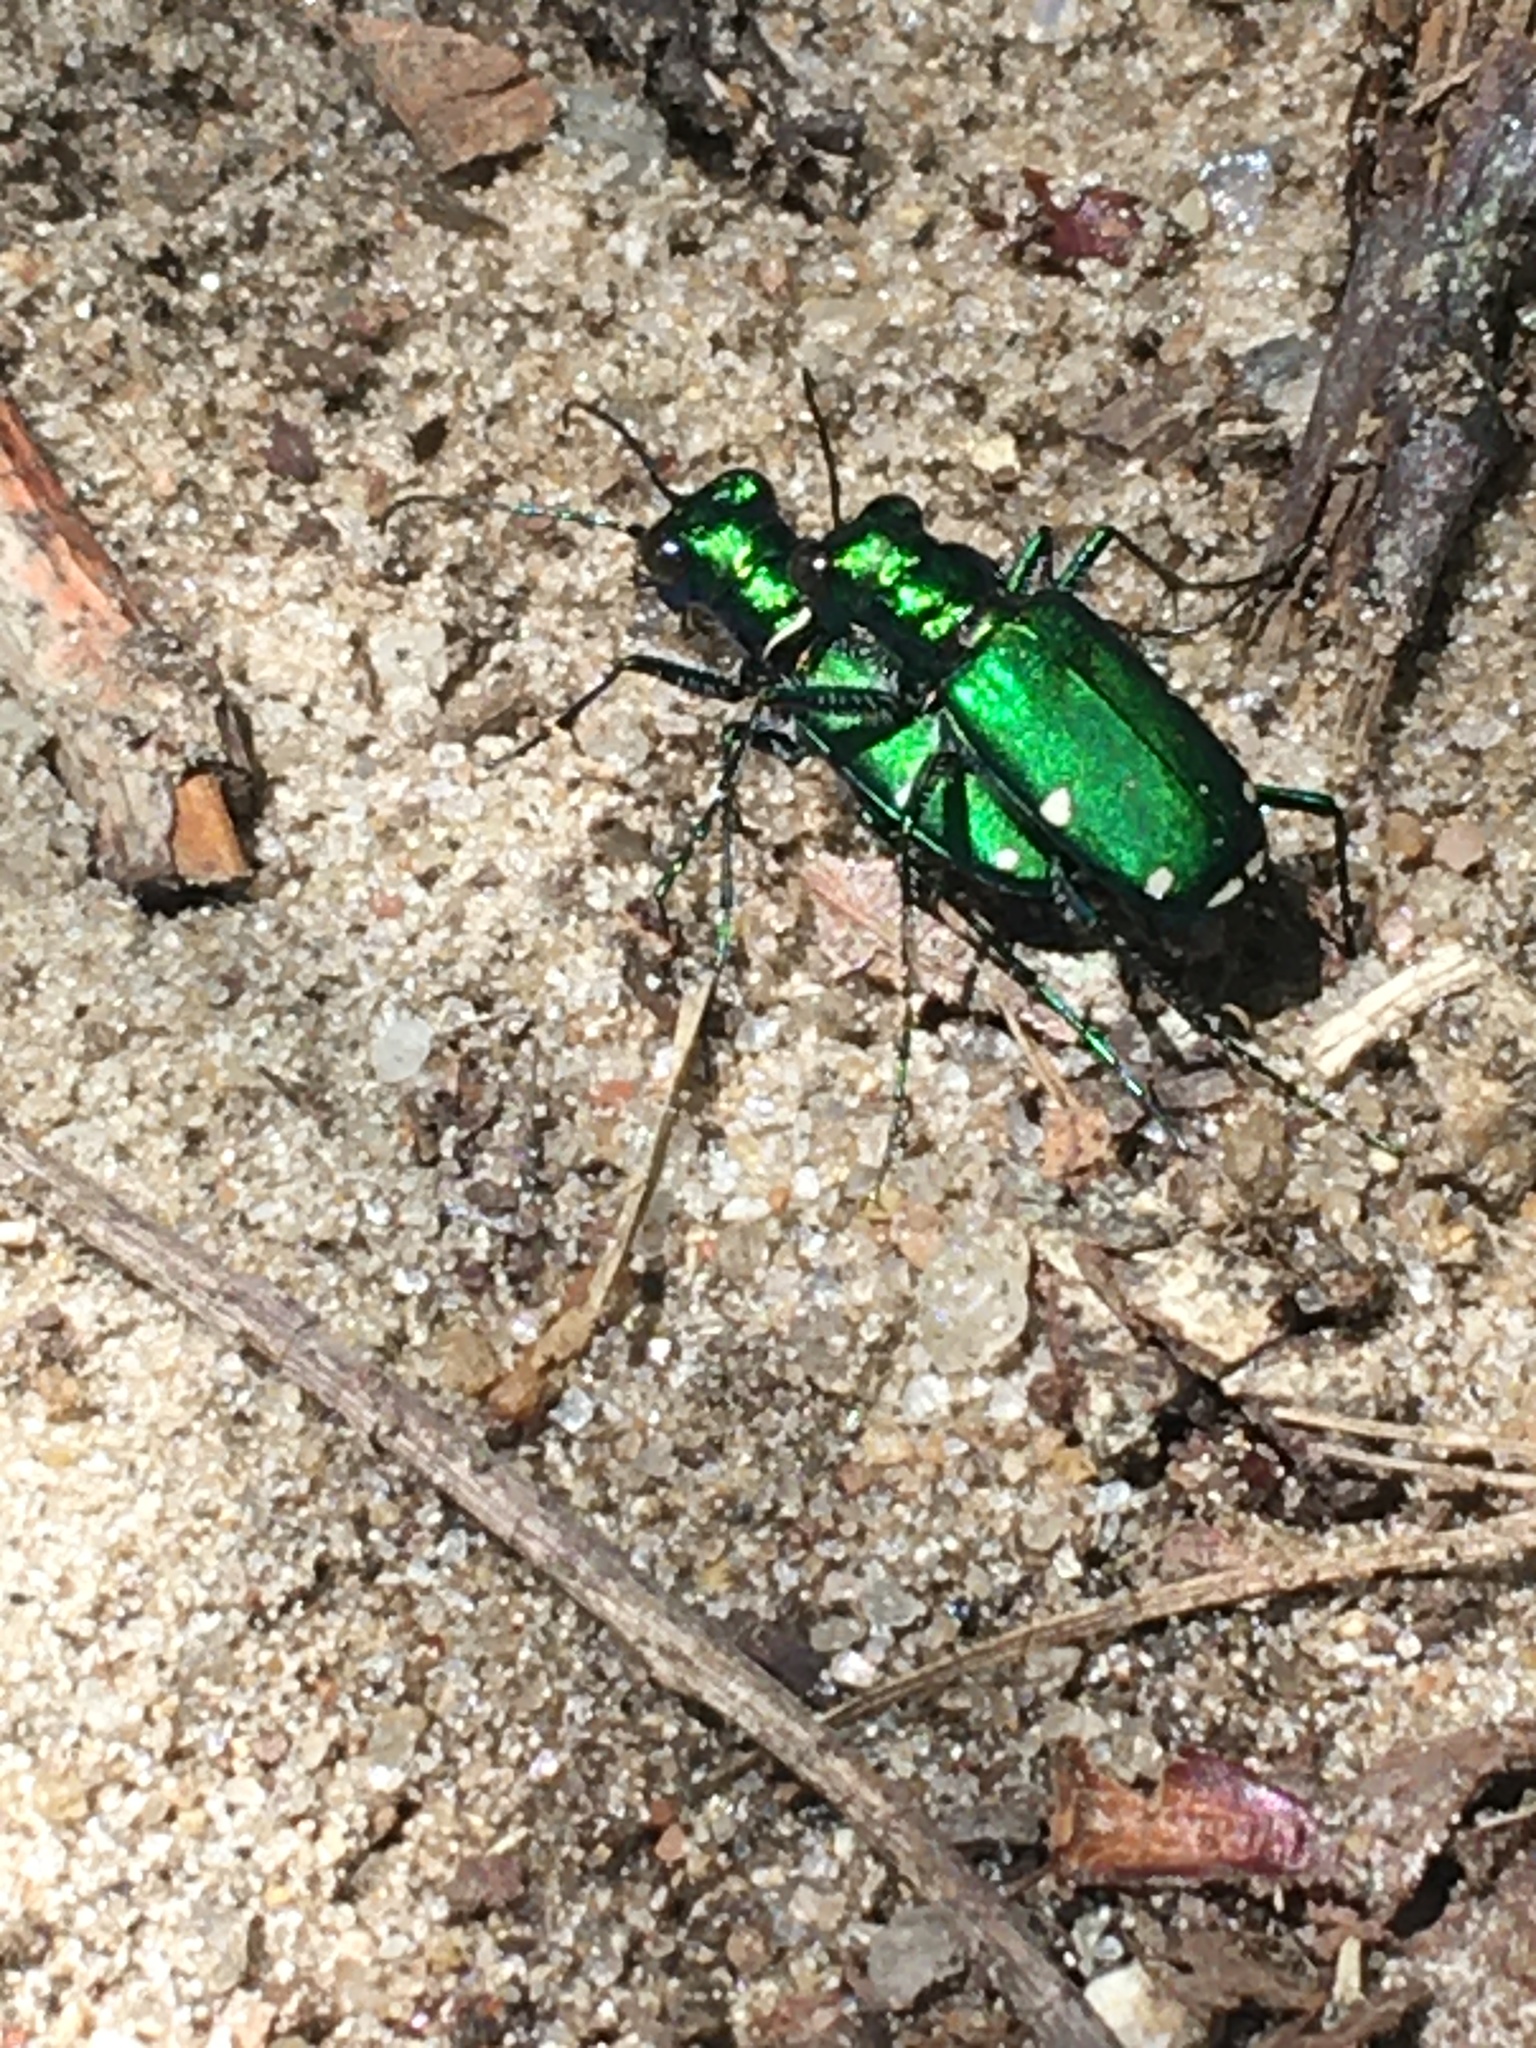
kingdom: Animalia
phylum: Arthropoda
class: Insecta
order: Coleoptera
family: Carabidae
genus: Cicindela
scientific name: Cicindela sexguttata
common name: Six-spotted tiger beetle
